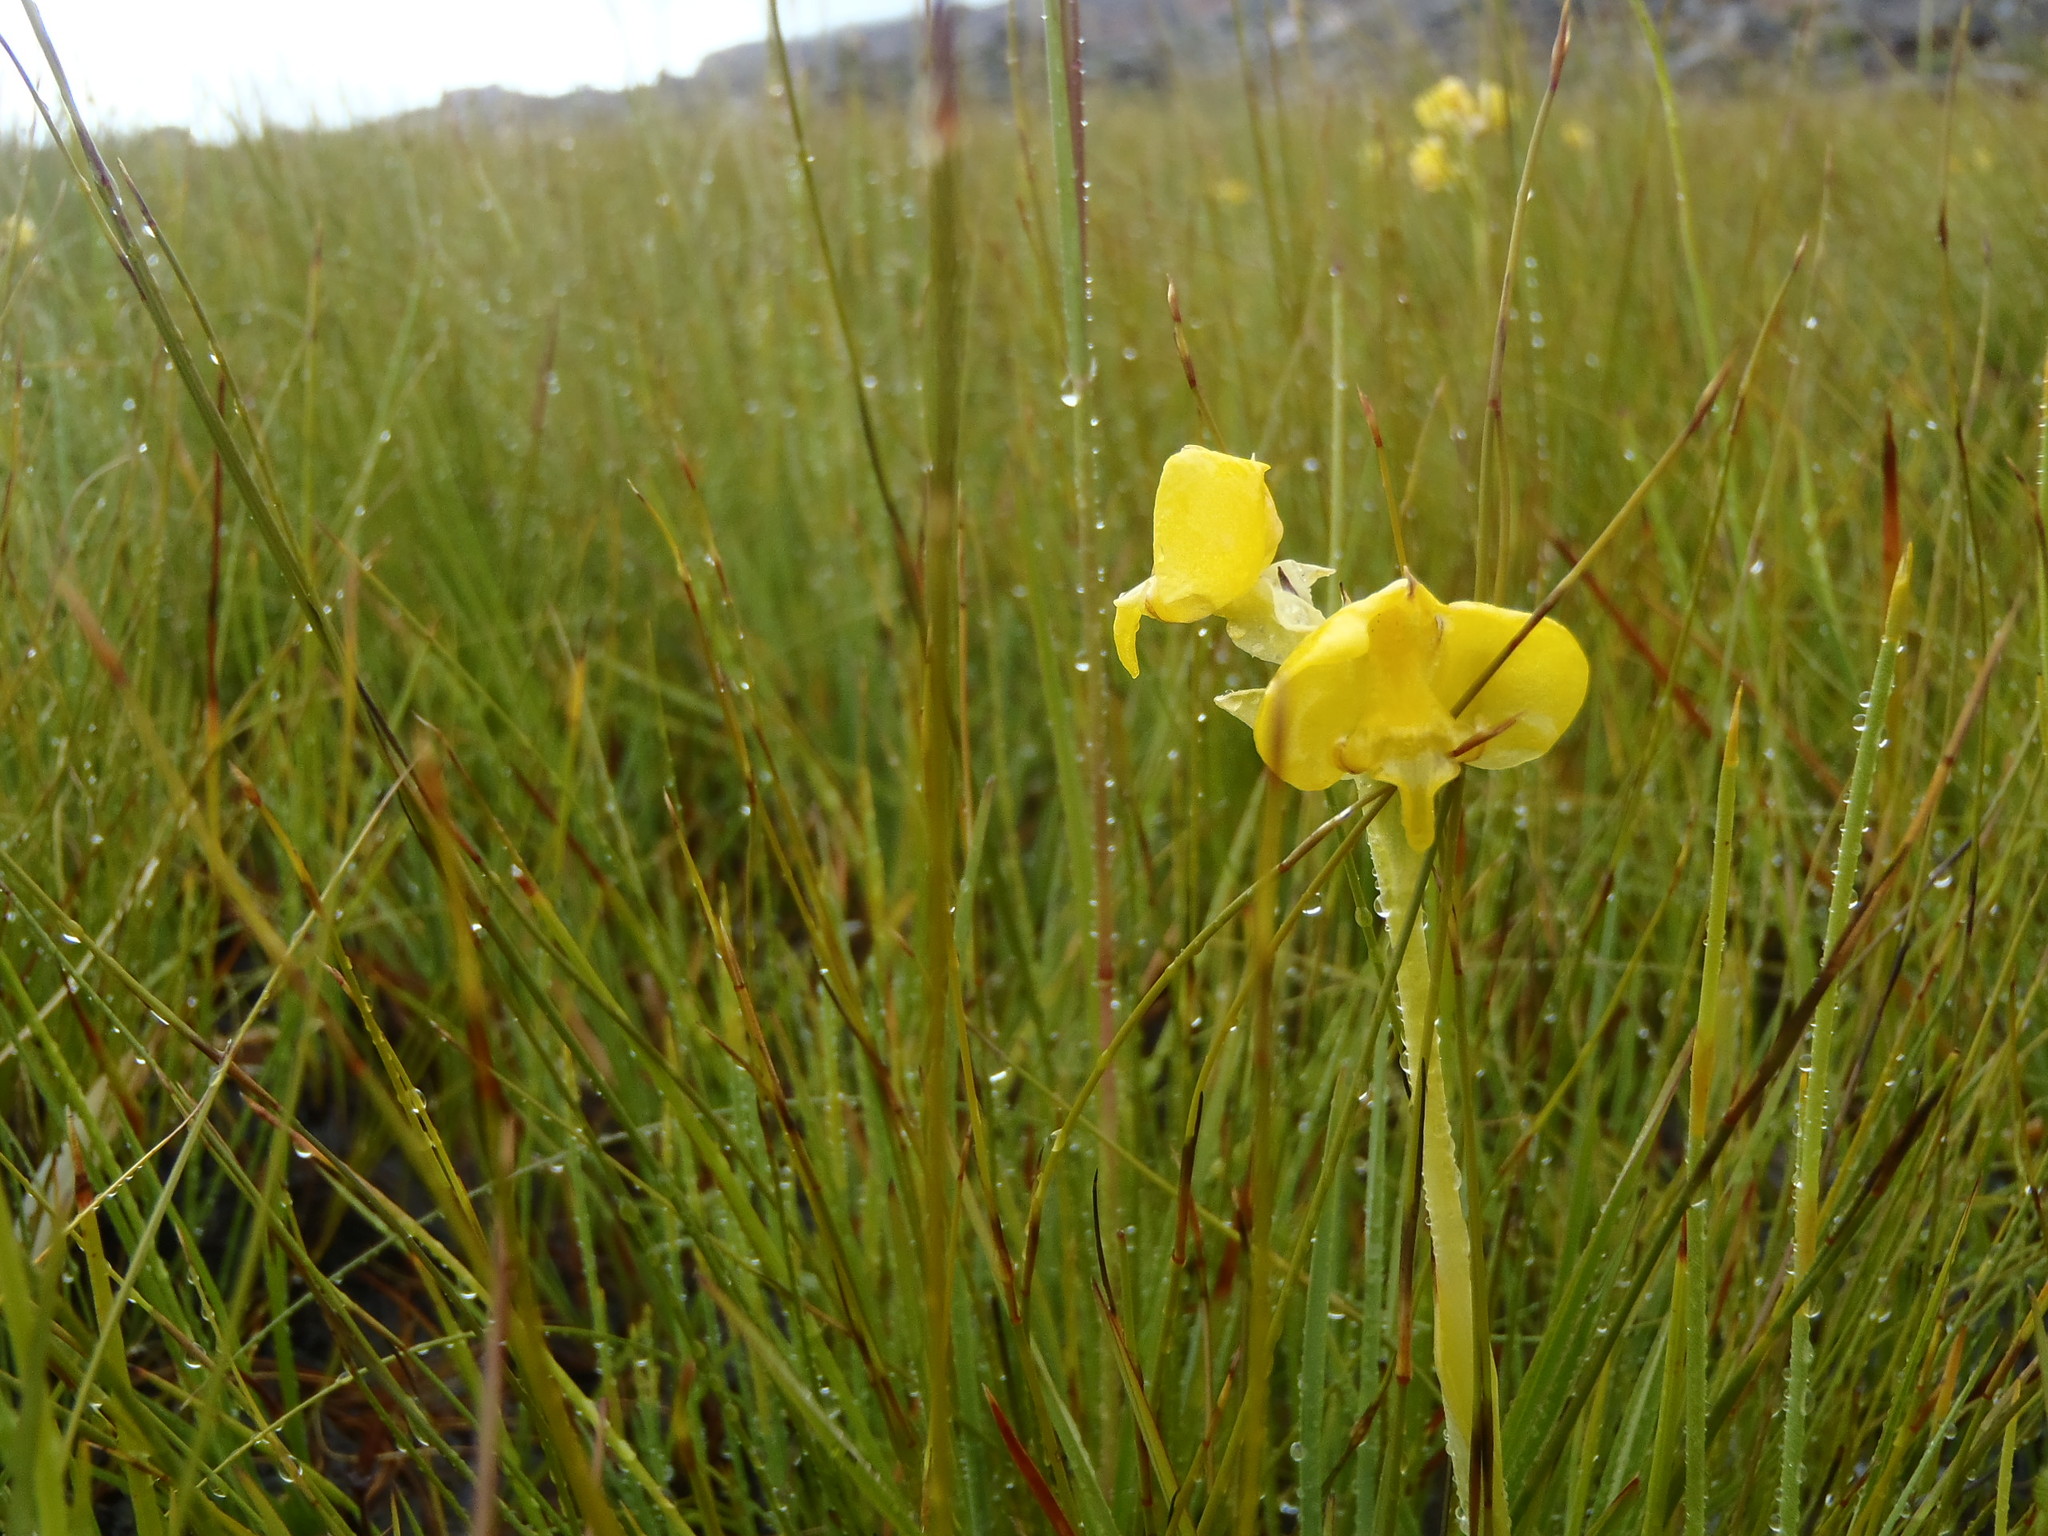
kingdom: Plantae
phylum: Tracheophyta
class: Liliopsida
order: Asparagales
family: Orchidaceae
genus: Pterygodium
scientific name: Pterygodium acutifolium
